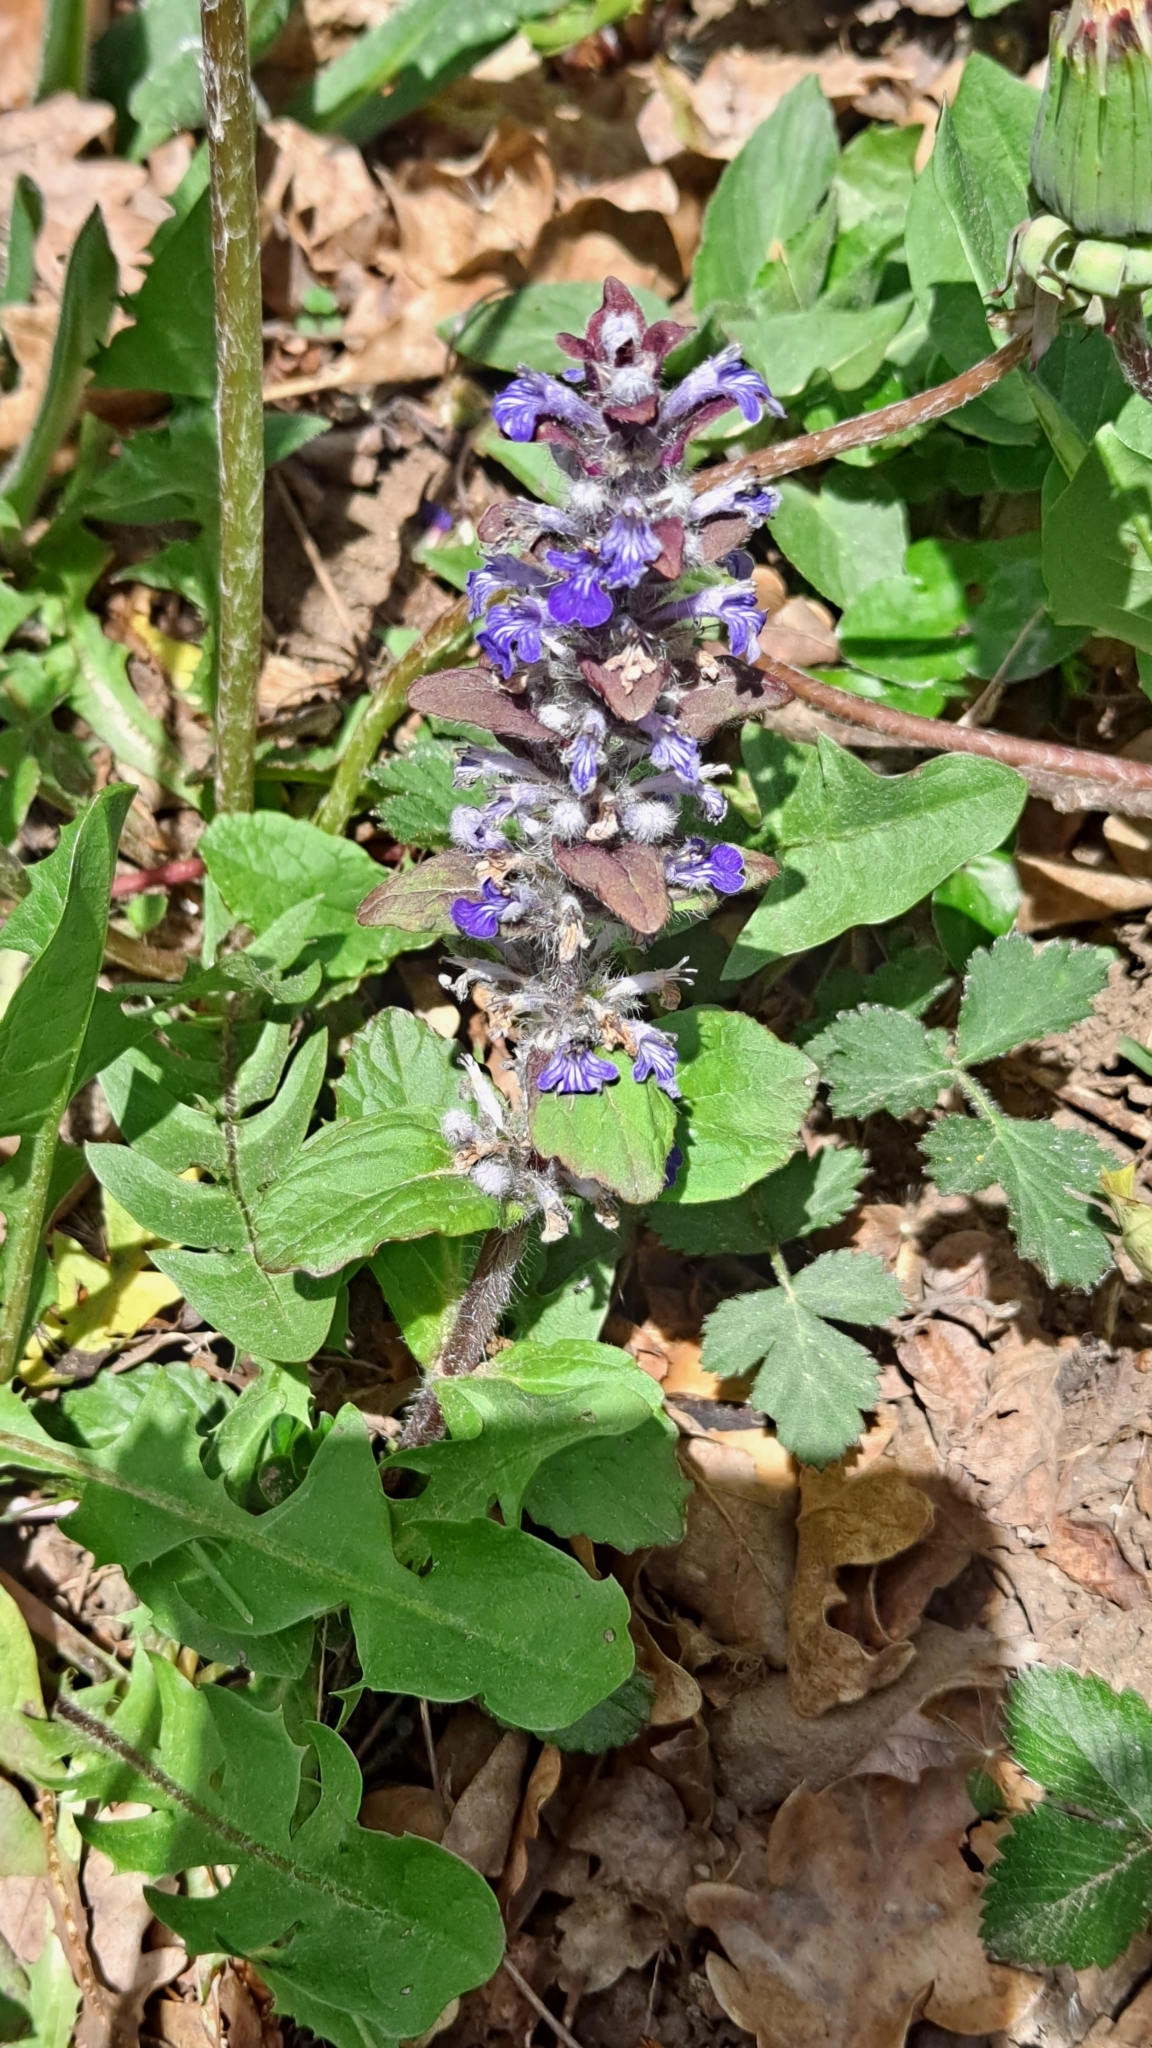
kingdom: Plantae
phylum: Tracheophyta
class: Magnoliopsida
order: Lamiales
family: Lamiaceae
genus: Ajuga
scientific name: Ajuga reptans
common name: Bugle
